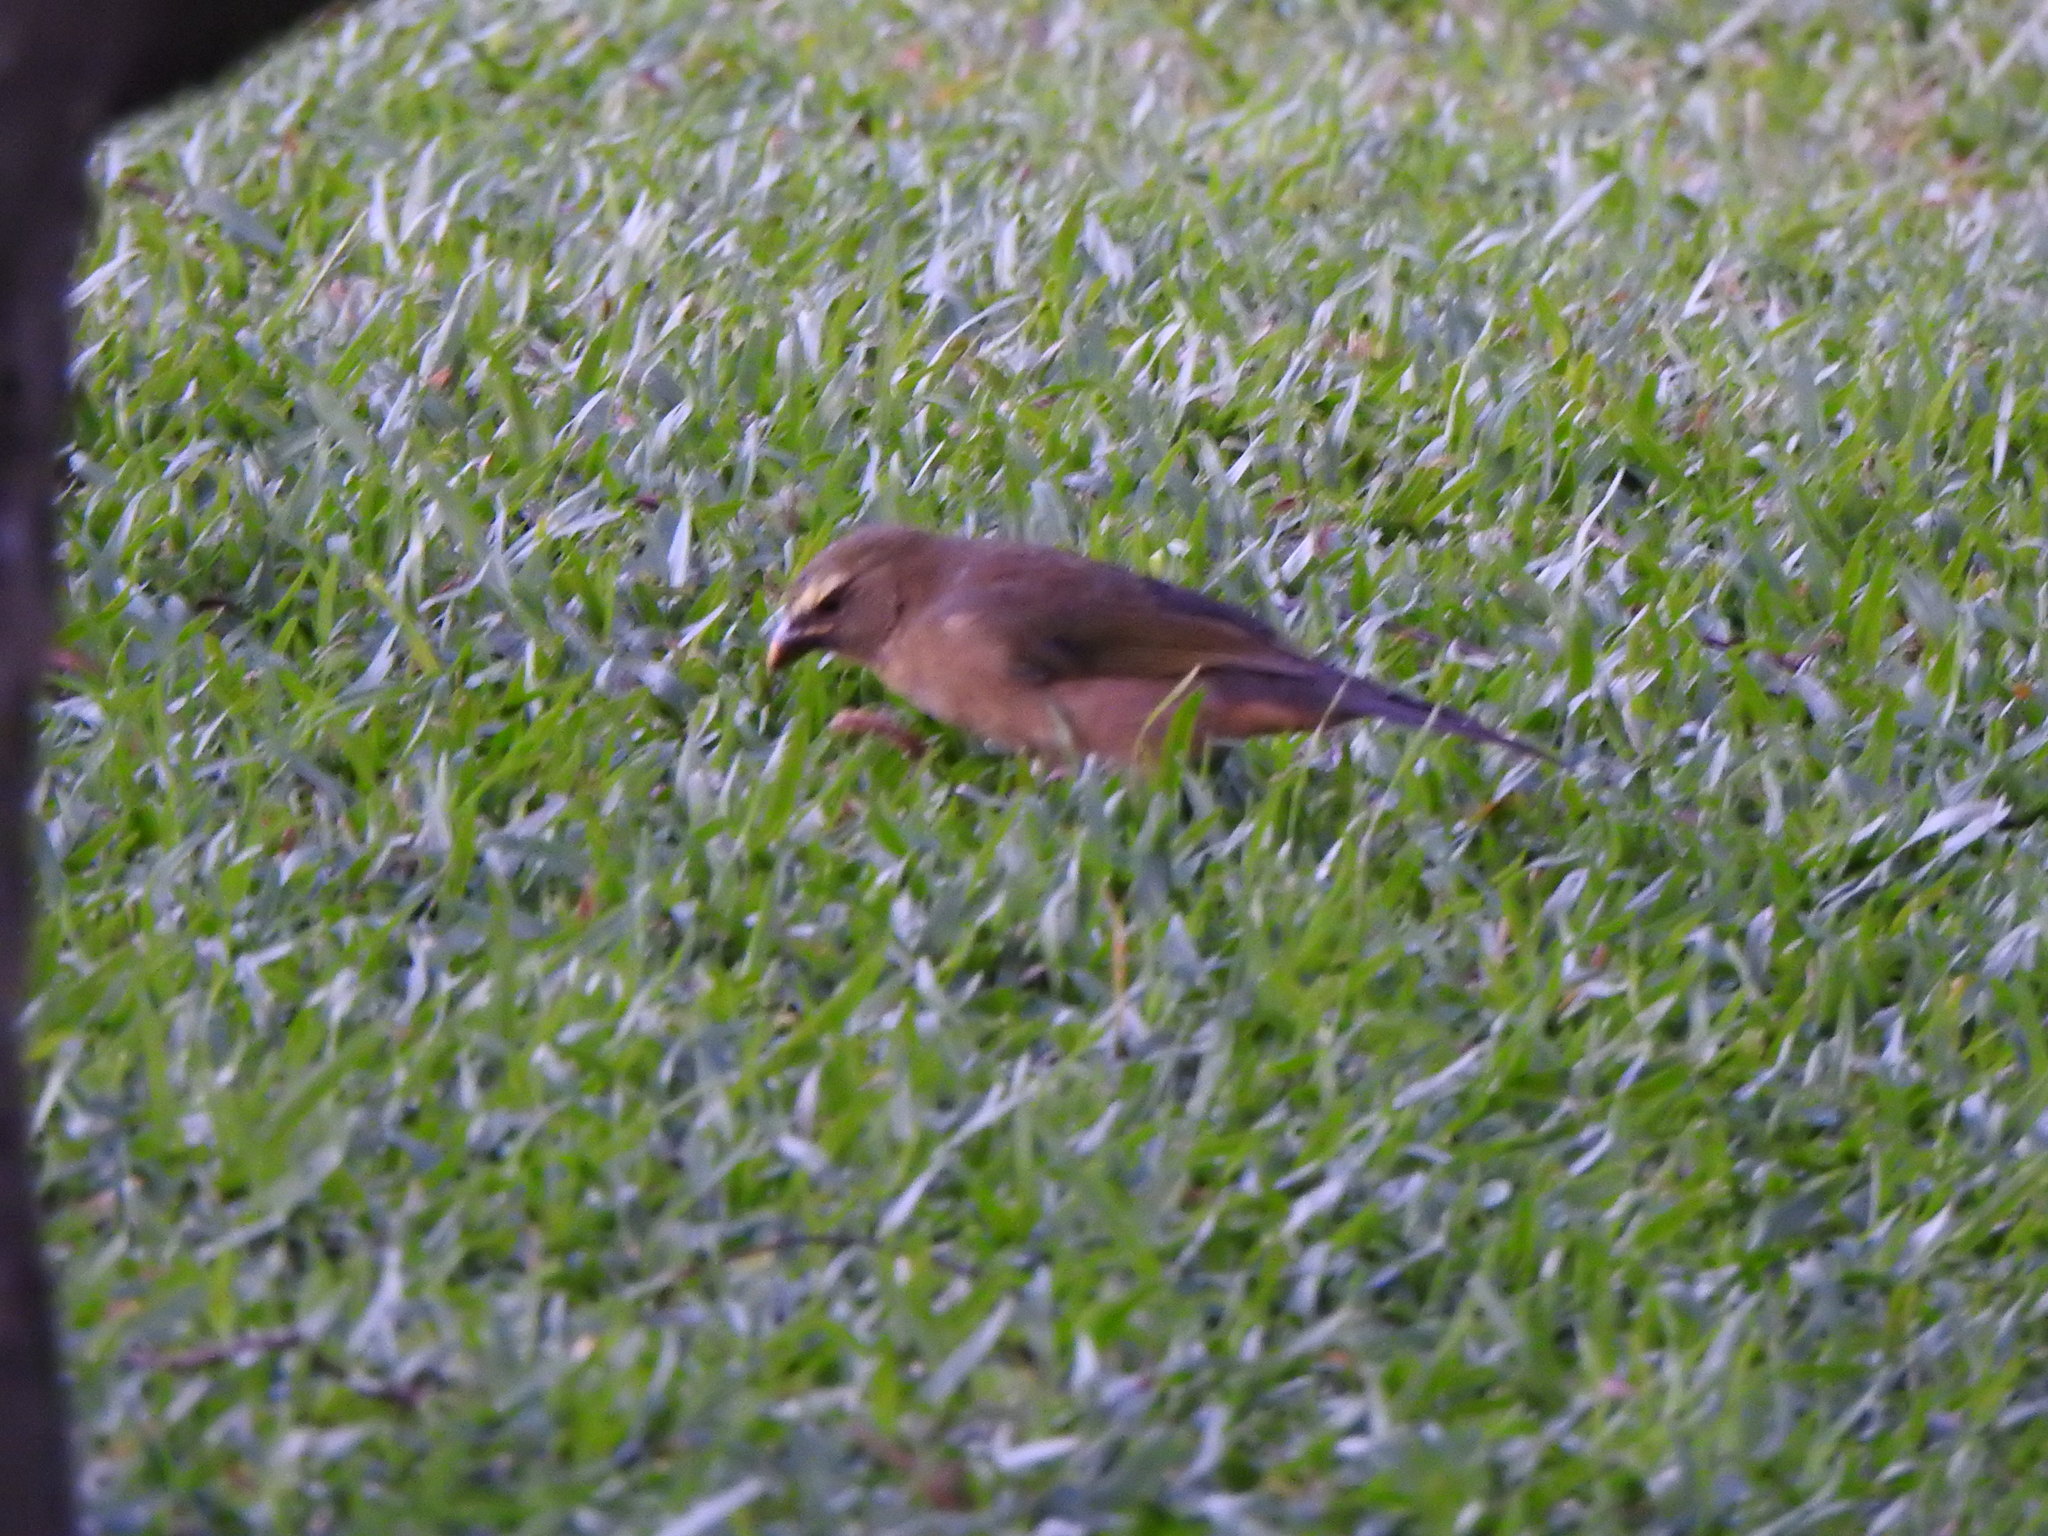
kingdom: Animalia
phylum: Chordata
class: Aves
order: Passeriformes
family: Thraupidae
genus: Saltator
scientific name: Saltator coerulescens
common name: Grayish saltator
